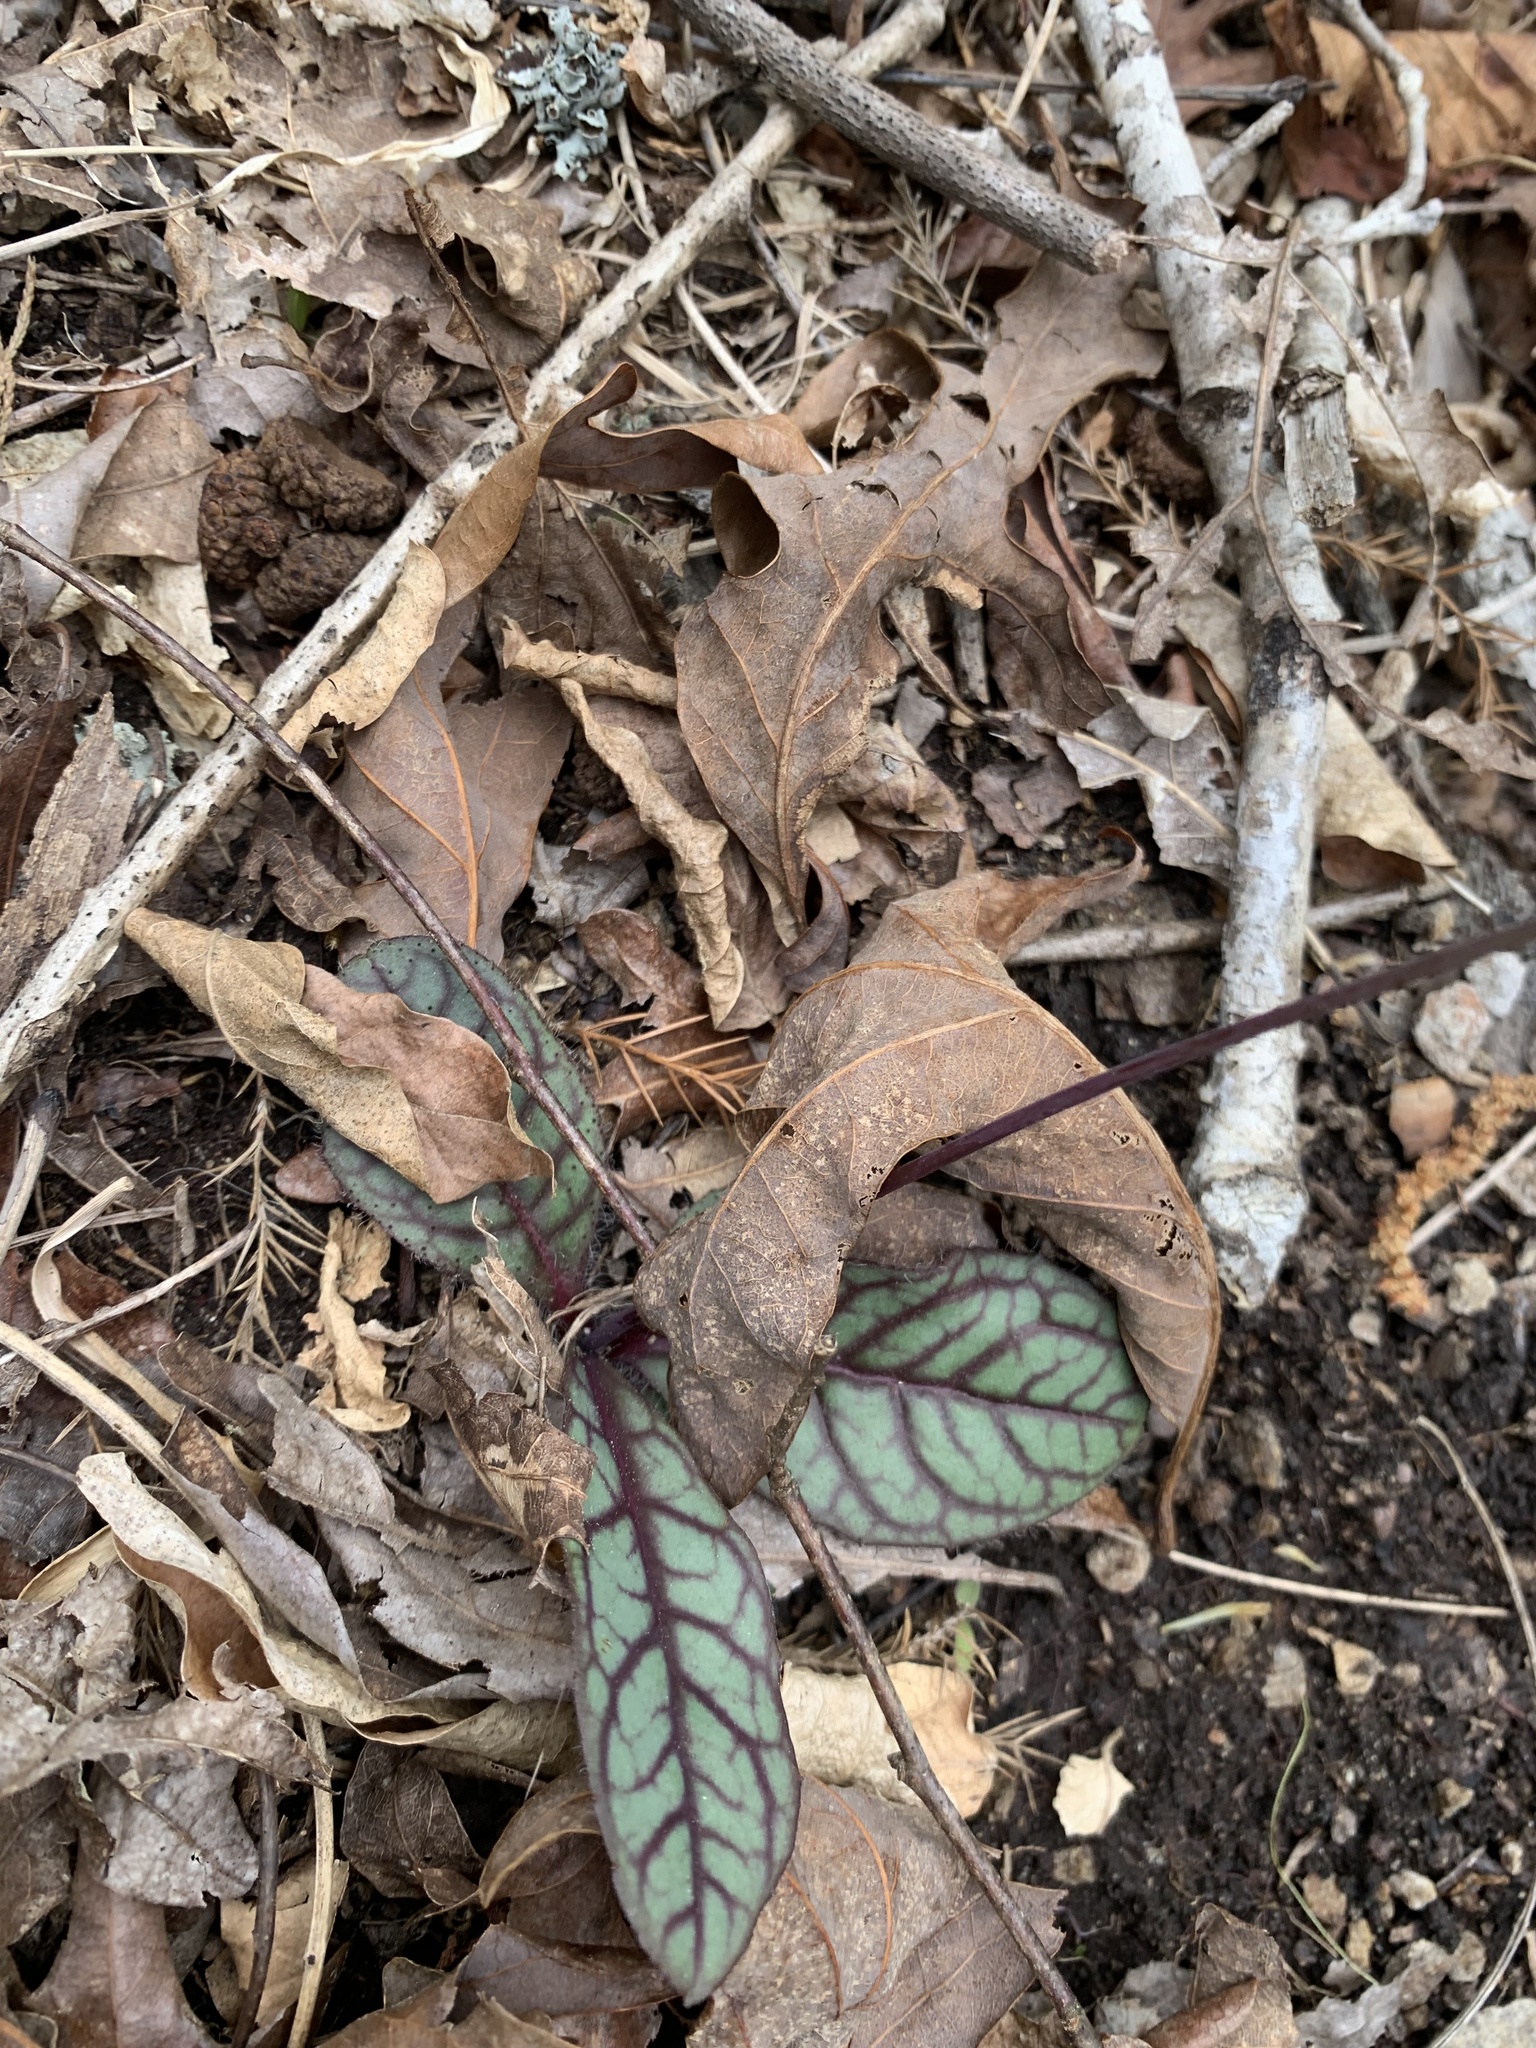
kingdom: Plantae
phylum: Tracheophyta
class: Magnoliopsida
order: Asterales
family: Asteraceae
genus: Hieracium
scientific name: Hieracium venosum
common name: Rattlesnake hawkweed
